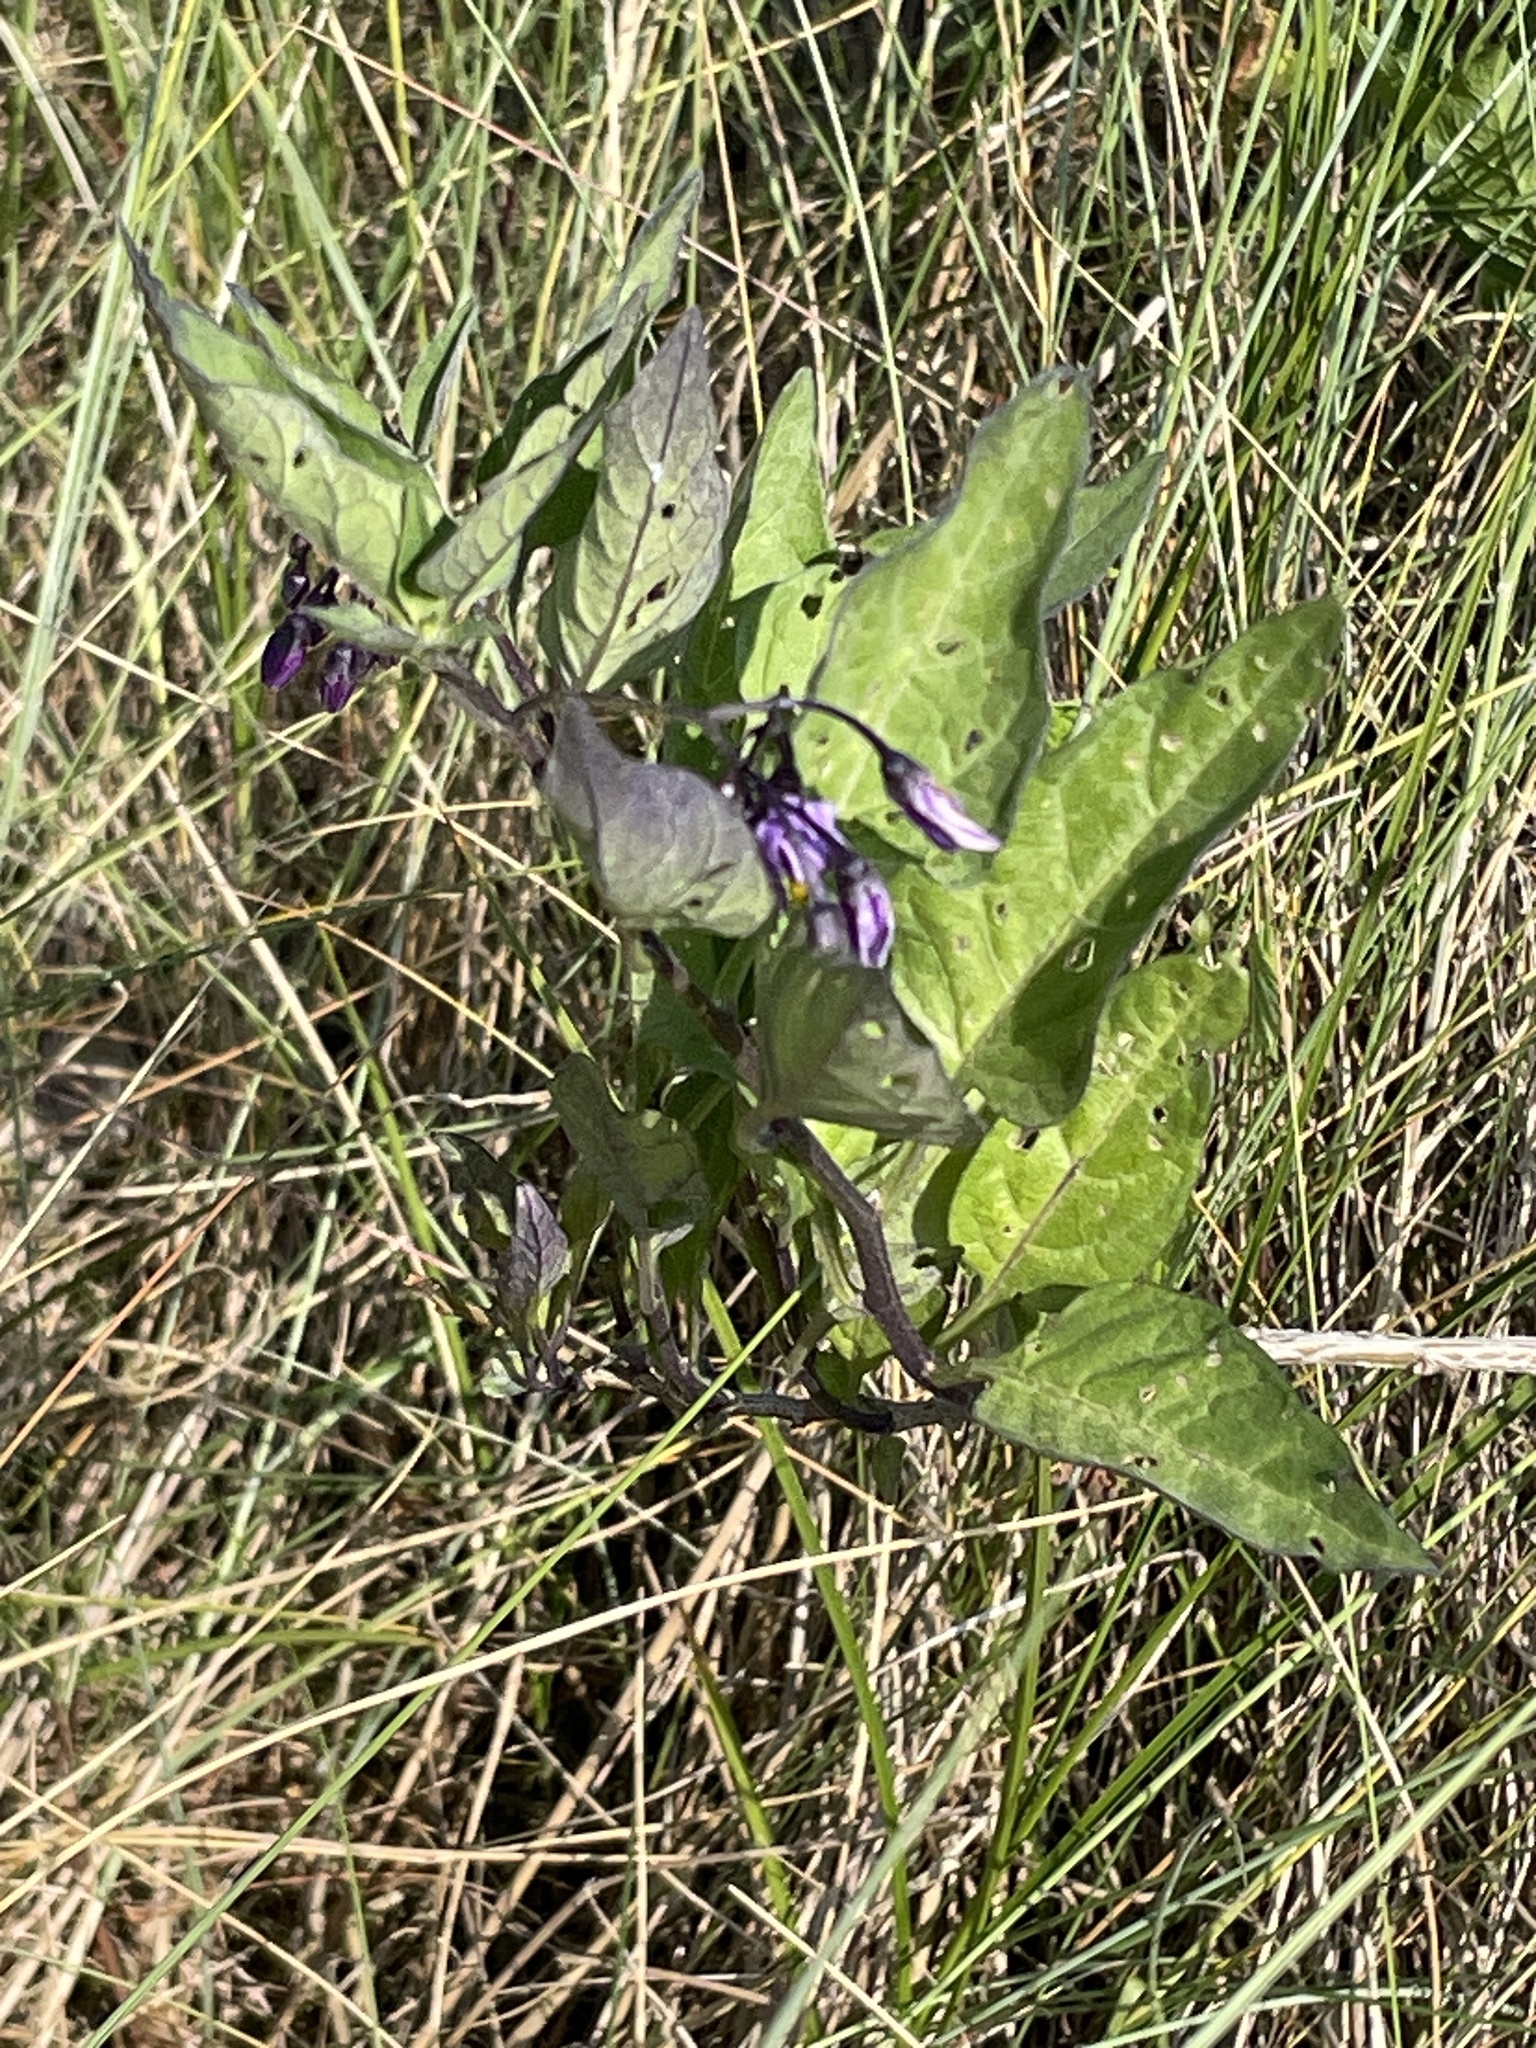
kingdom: Plantae
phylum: Tracheophyta
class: Magnoliopsida
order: Solanales
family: Solanaceae
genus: Solanum
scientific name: Solanum dulcamara
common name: Climbing nightshade
